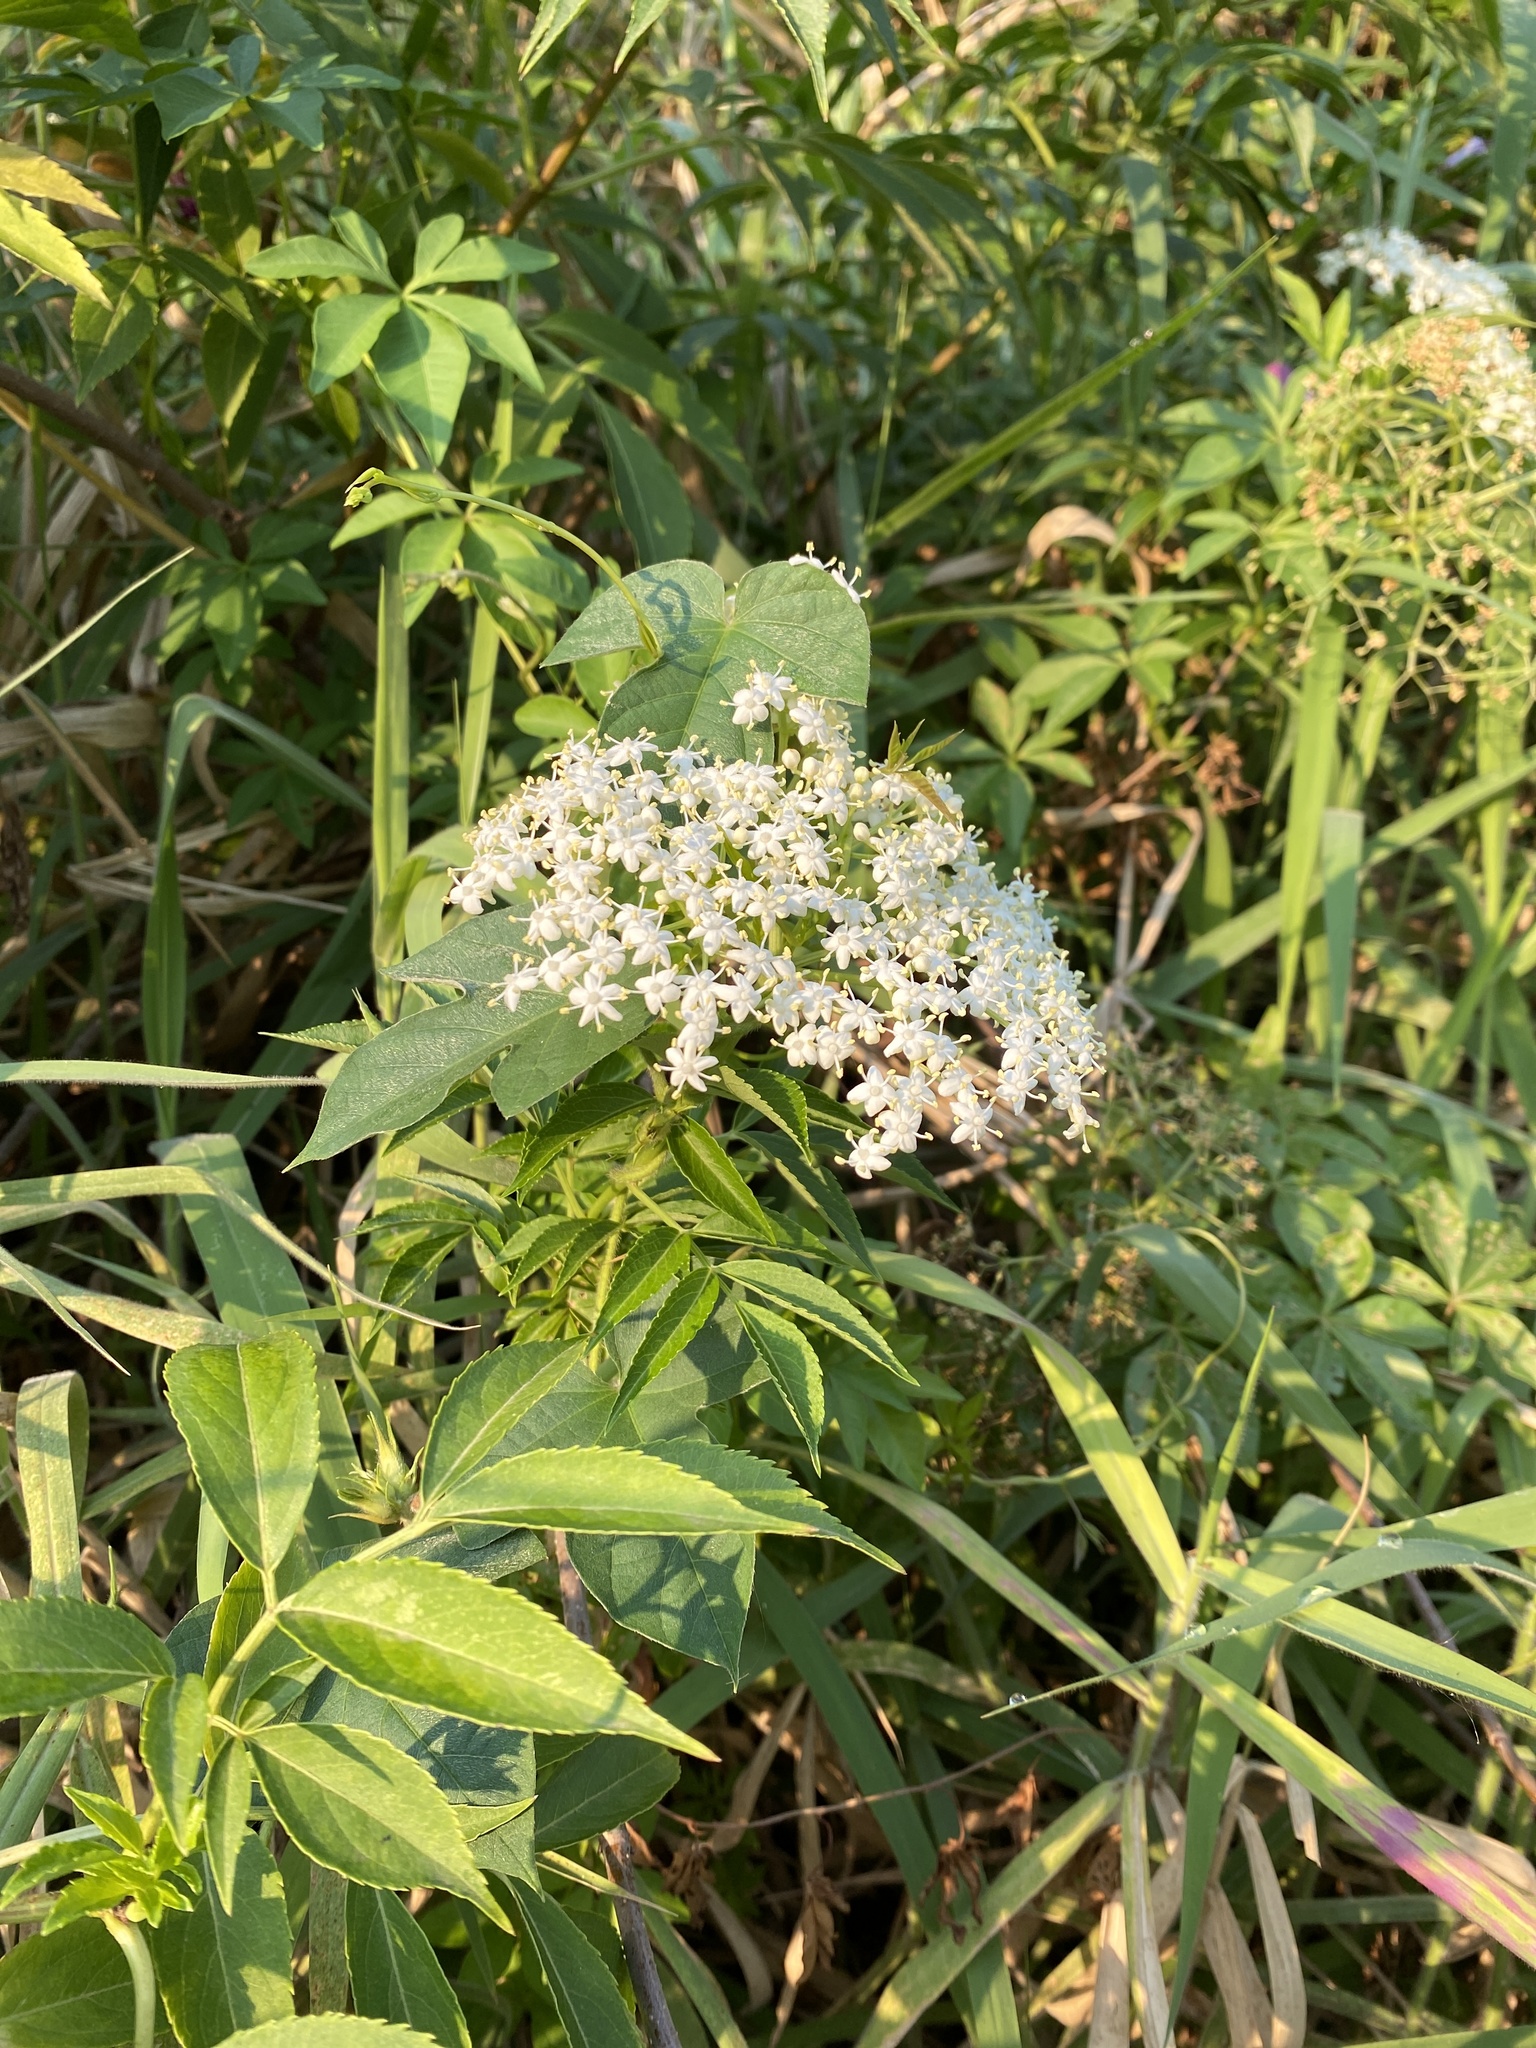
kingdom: Plantae
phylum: Tracheophyta
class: Magnoliopsida
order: Dipsacales
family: Viburnaceae
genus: Sambucus
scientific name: Sambucus nigra
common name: Elder
